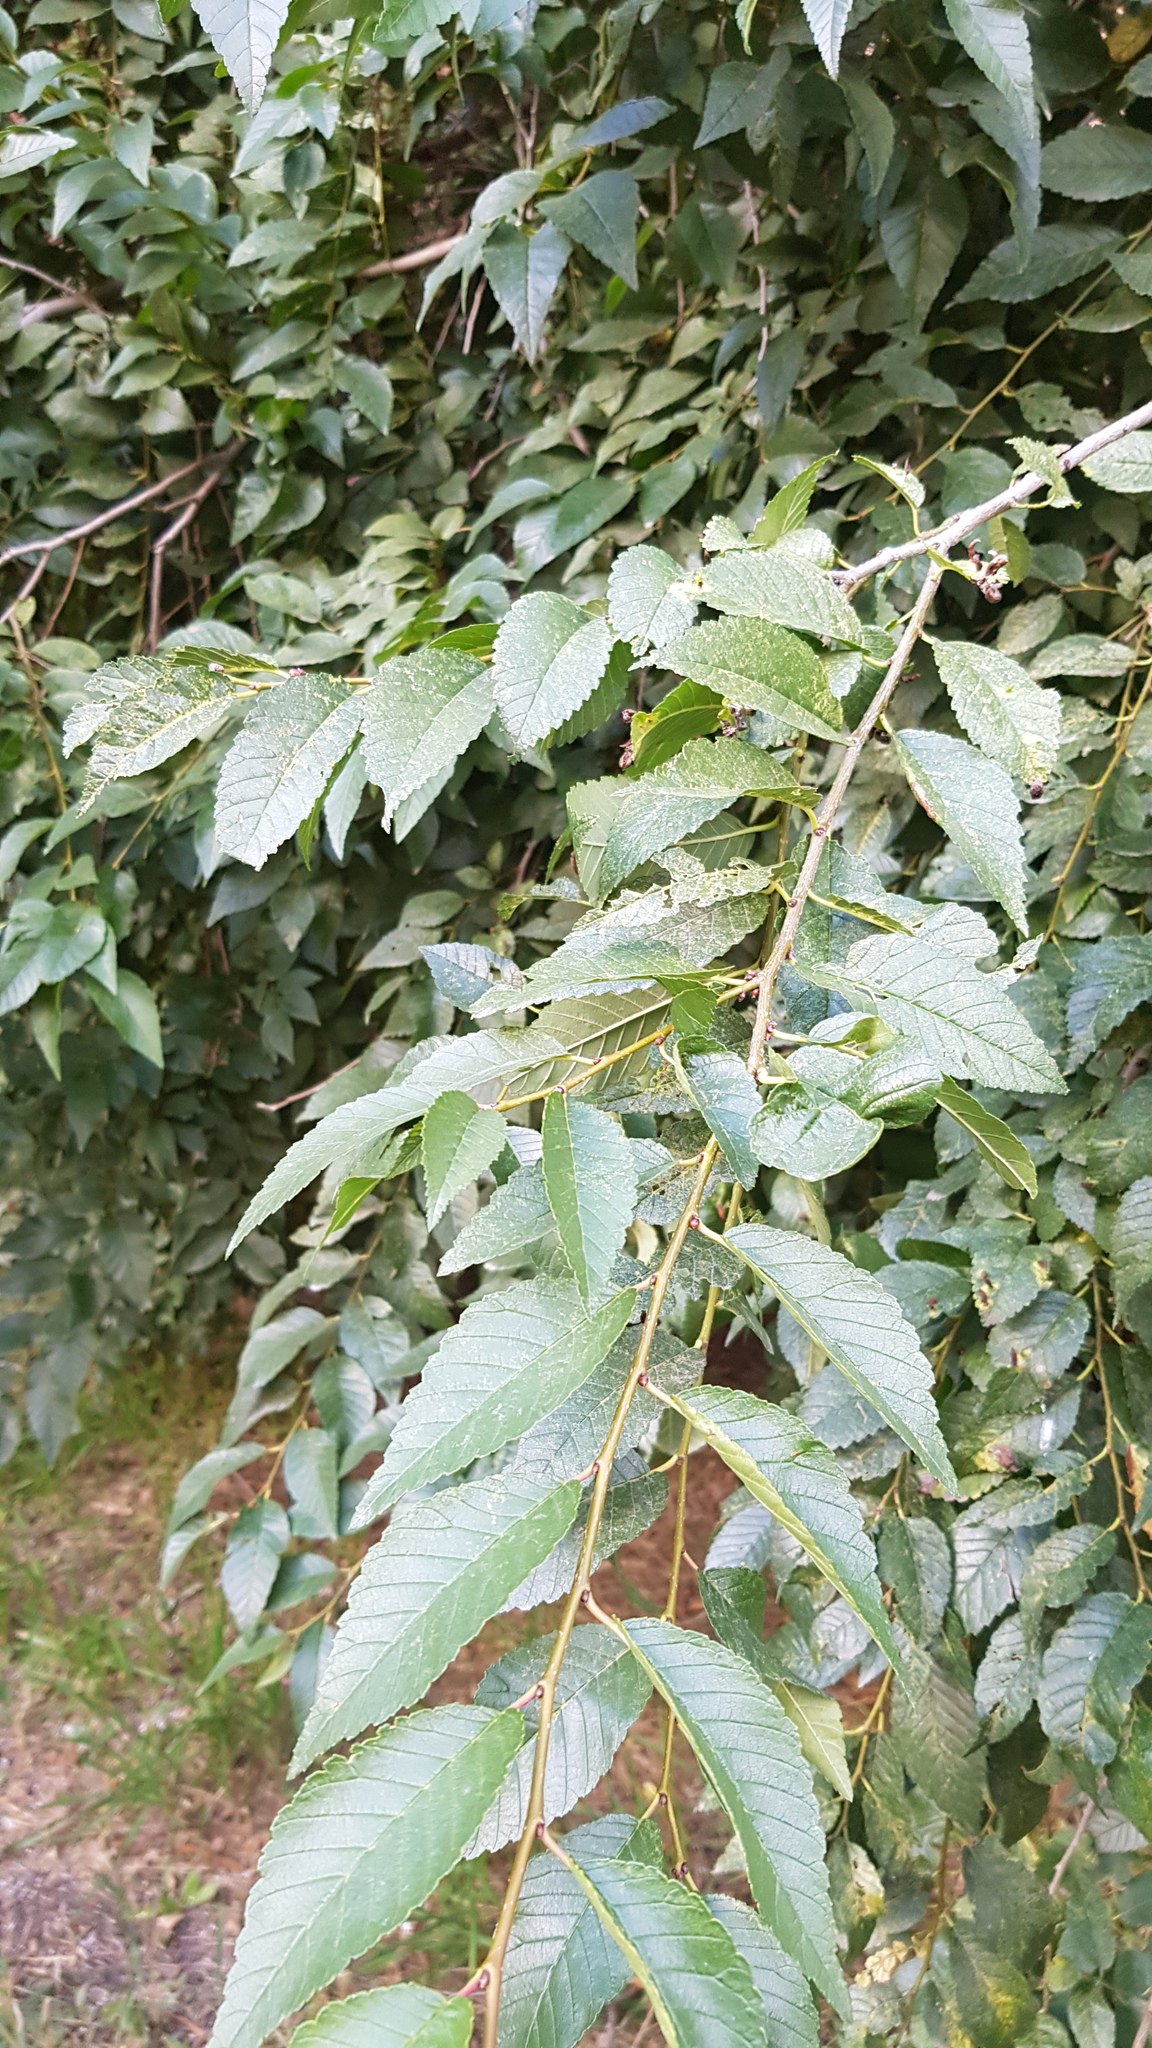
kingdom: Plantae
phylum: Tracheophyta
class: Magnoliopsida
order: Rosales
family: Ulmaceae
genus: Ulmus
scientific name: Ulmus pumila
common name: Siberian elm
